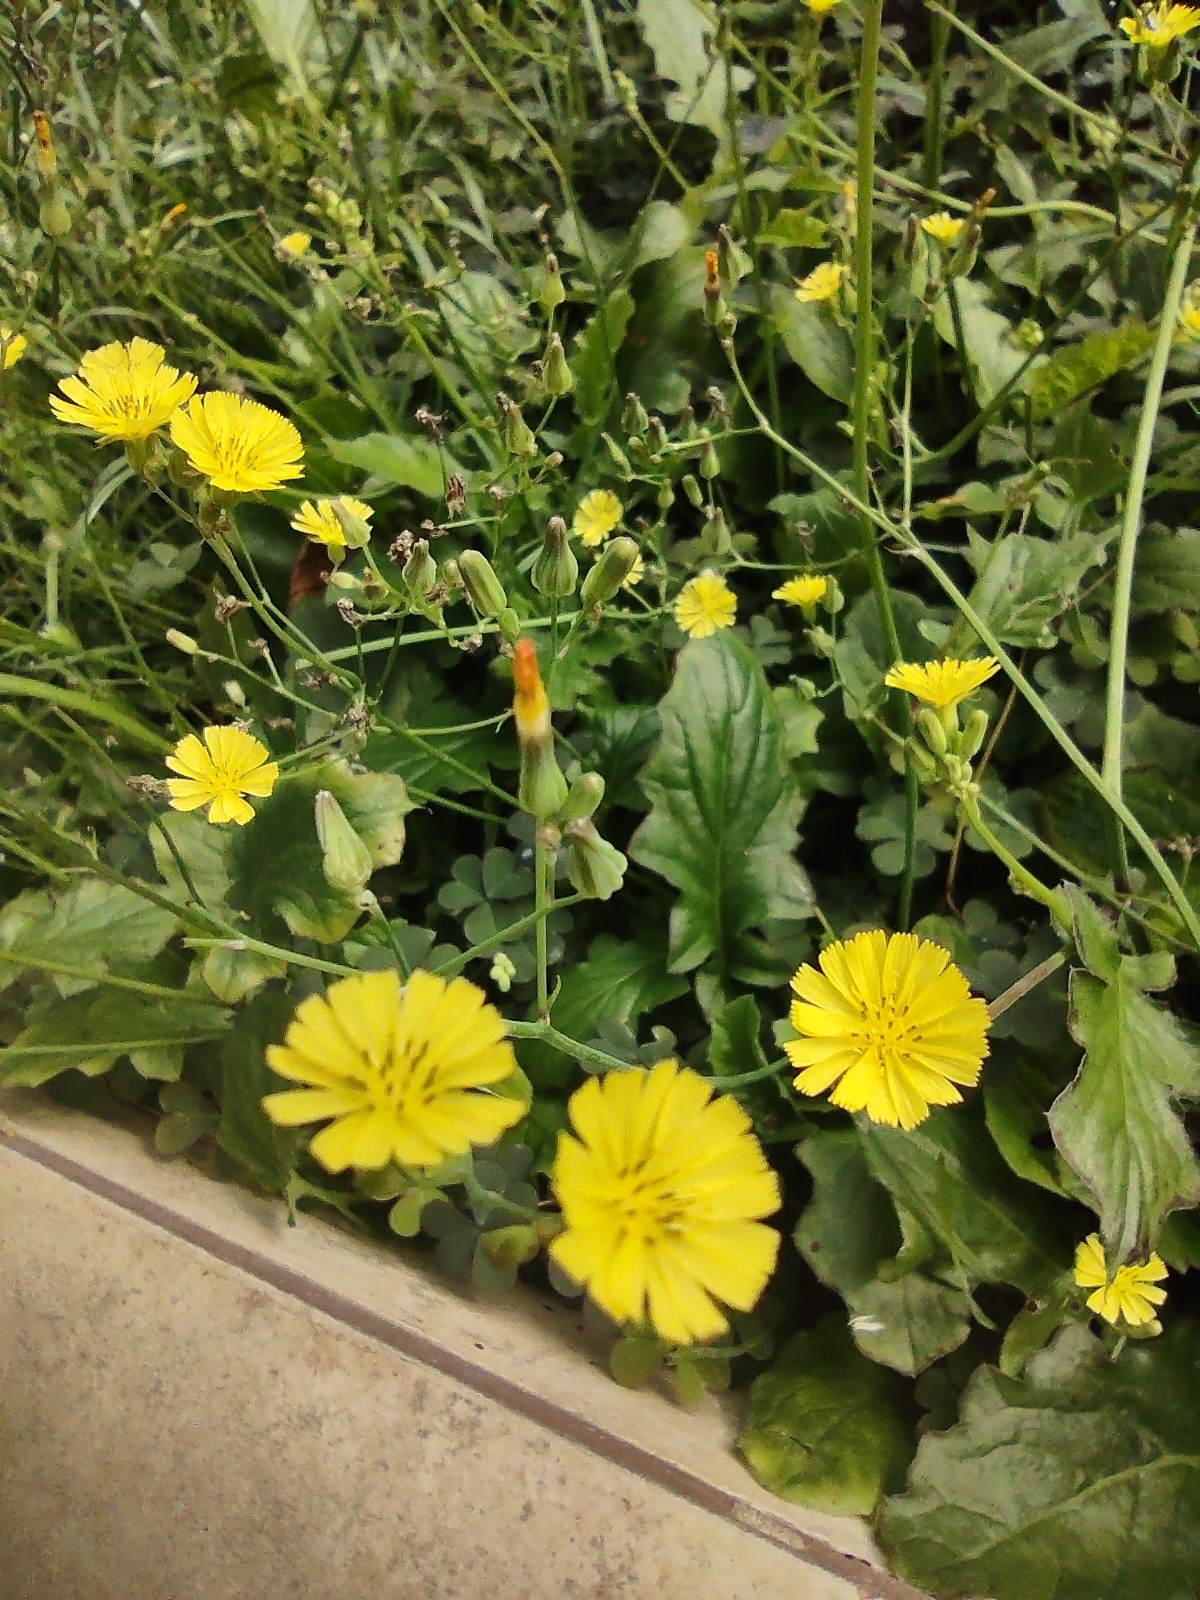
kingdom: Plantae
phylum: Tracheophyta
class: Magnoliopsida
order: Asterales
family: Asteraceae
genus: Youngia
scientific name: Youngia japonica
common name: Oriental false hawksbeard
